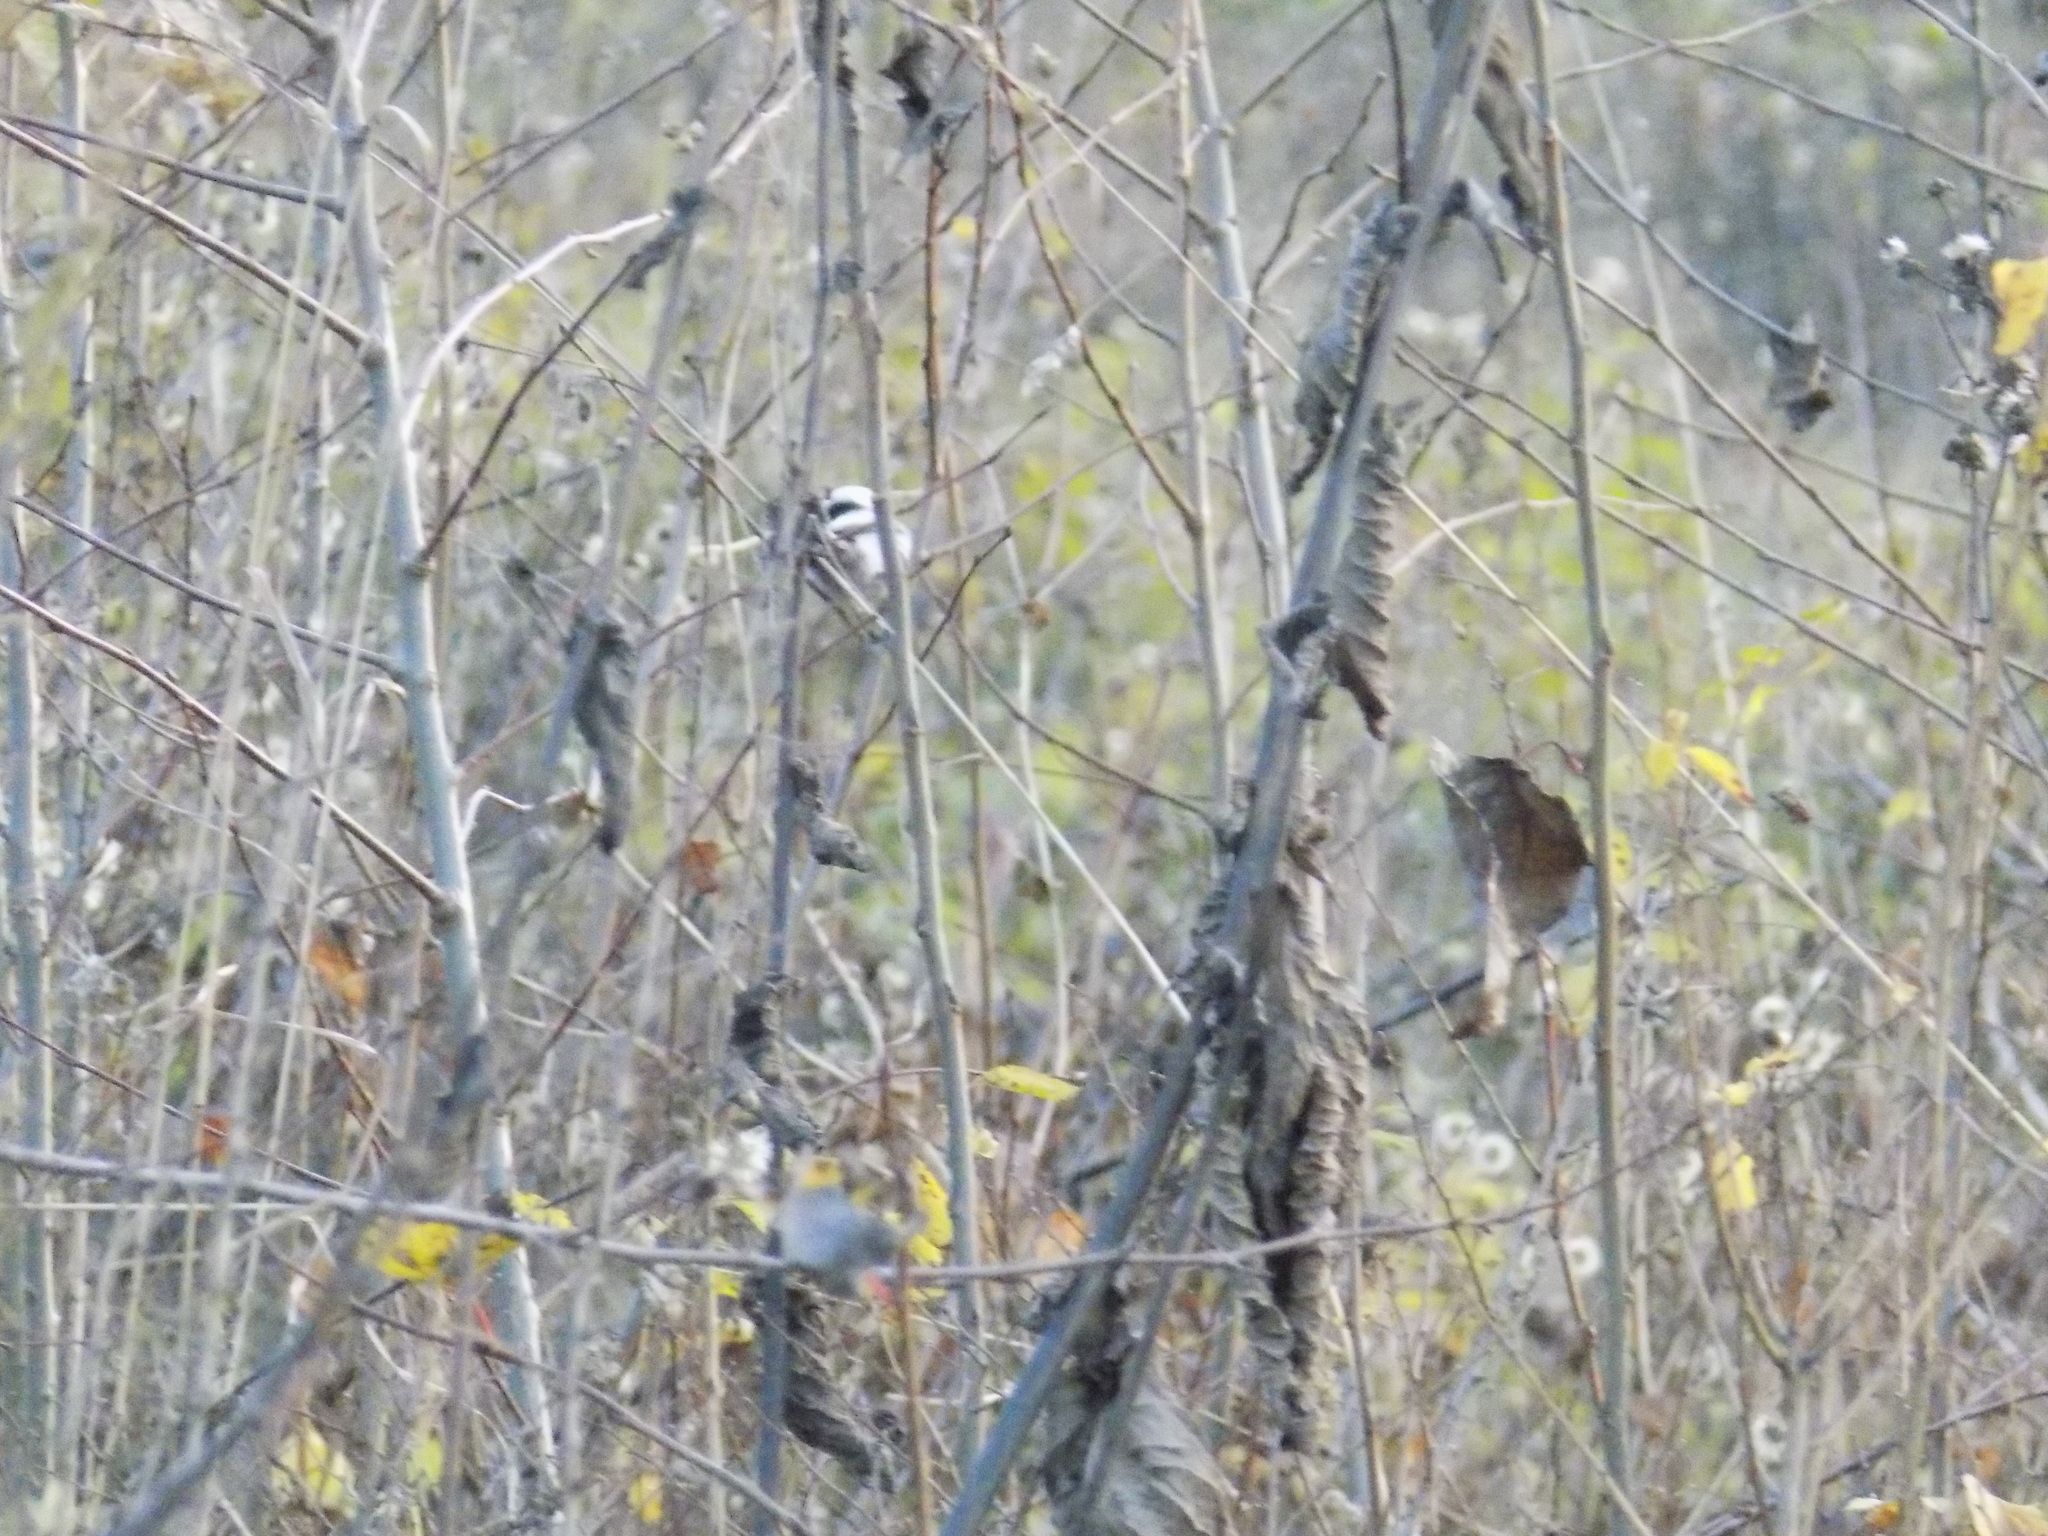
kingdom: Animalia
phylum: Chordata
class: Aves
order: Passeriformes
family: Aegithalidae
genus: Aegithalos
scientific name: Aegithalos caudatus
